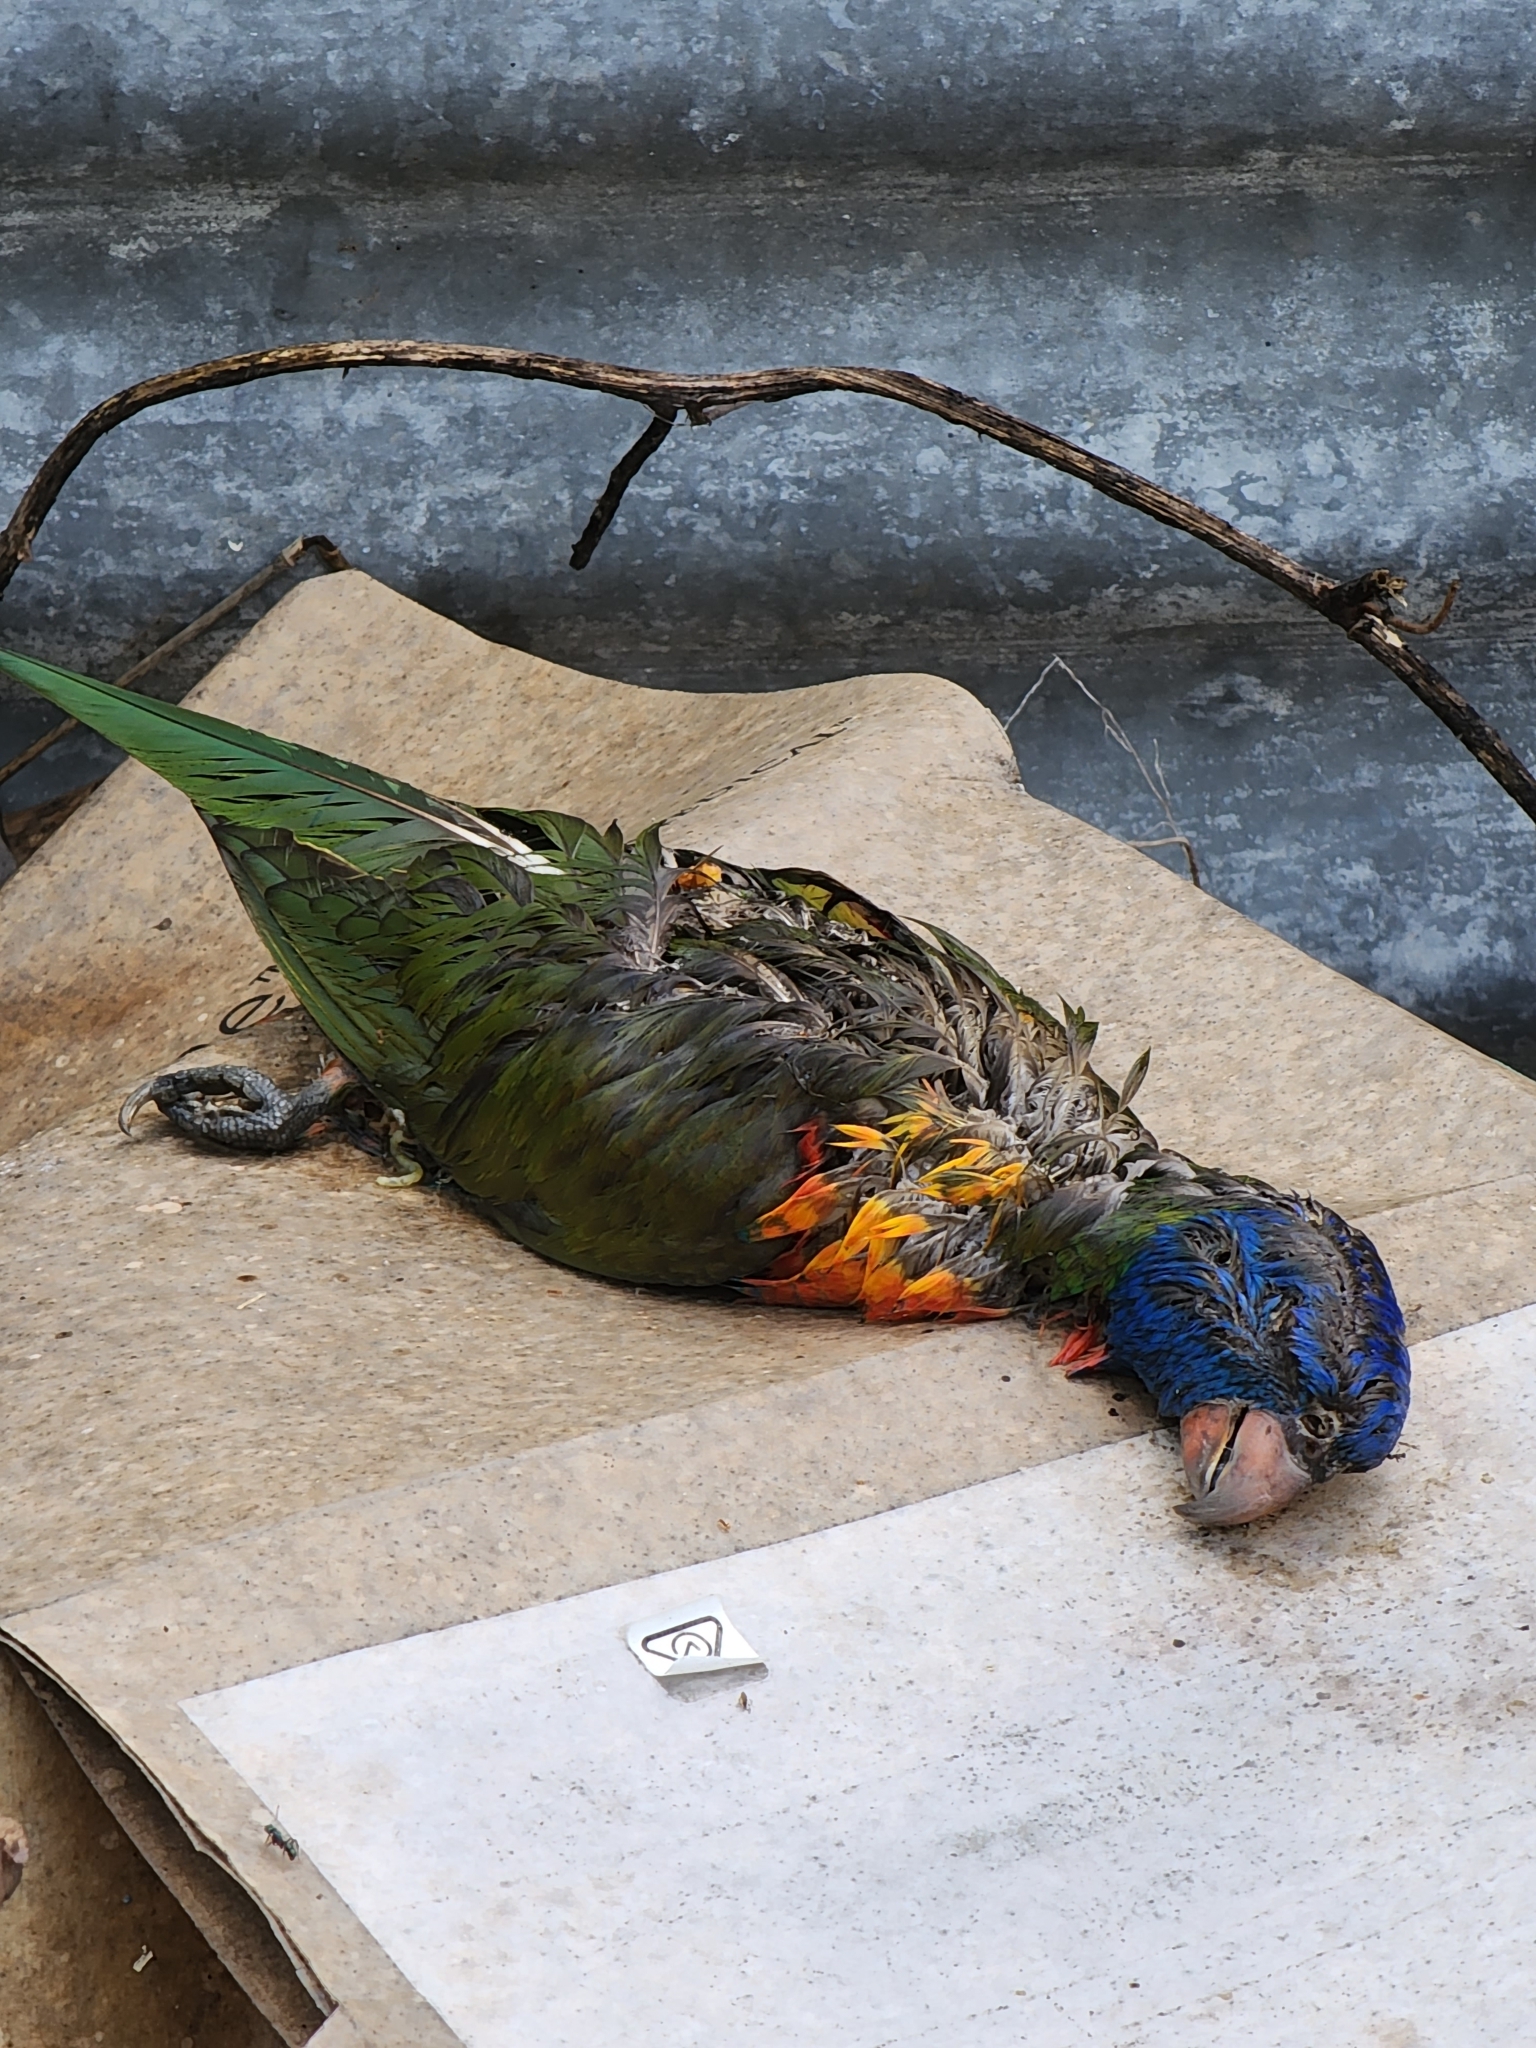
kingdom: Animalia
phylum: Chordata
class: Aves
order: Psittaciformes
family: Psittacidae
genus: Trichoglossus
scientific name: Trichoglossus haematodus
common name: Coconut lorikeet
